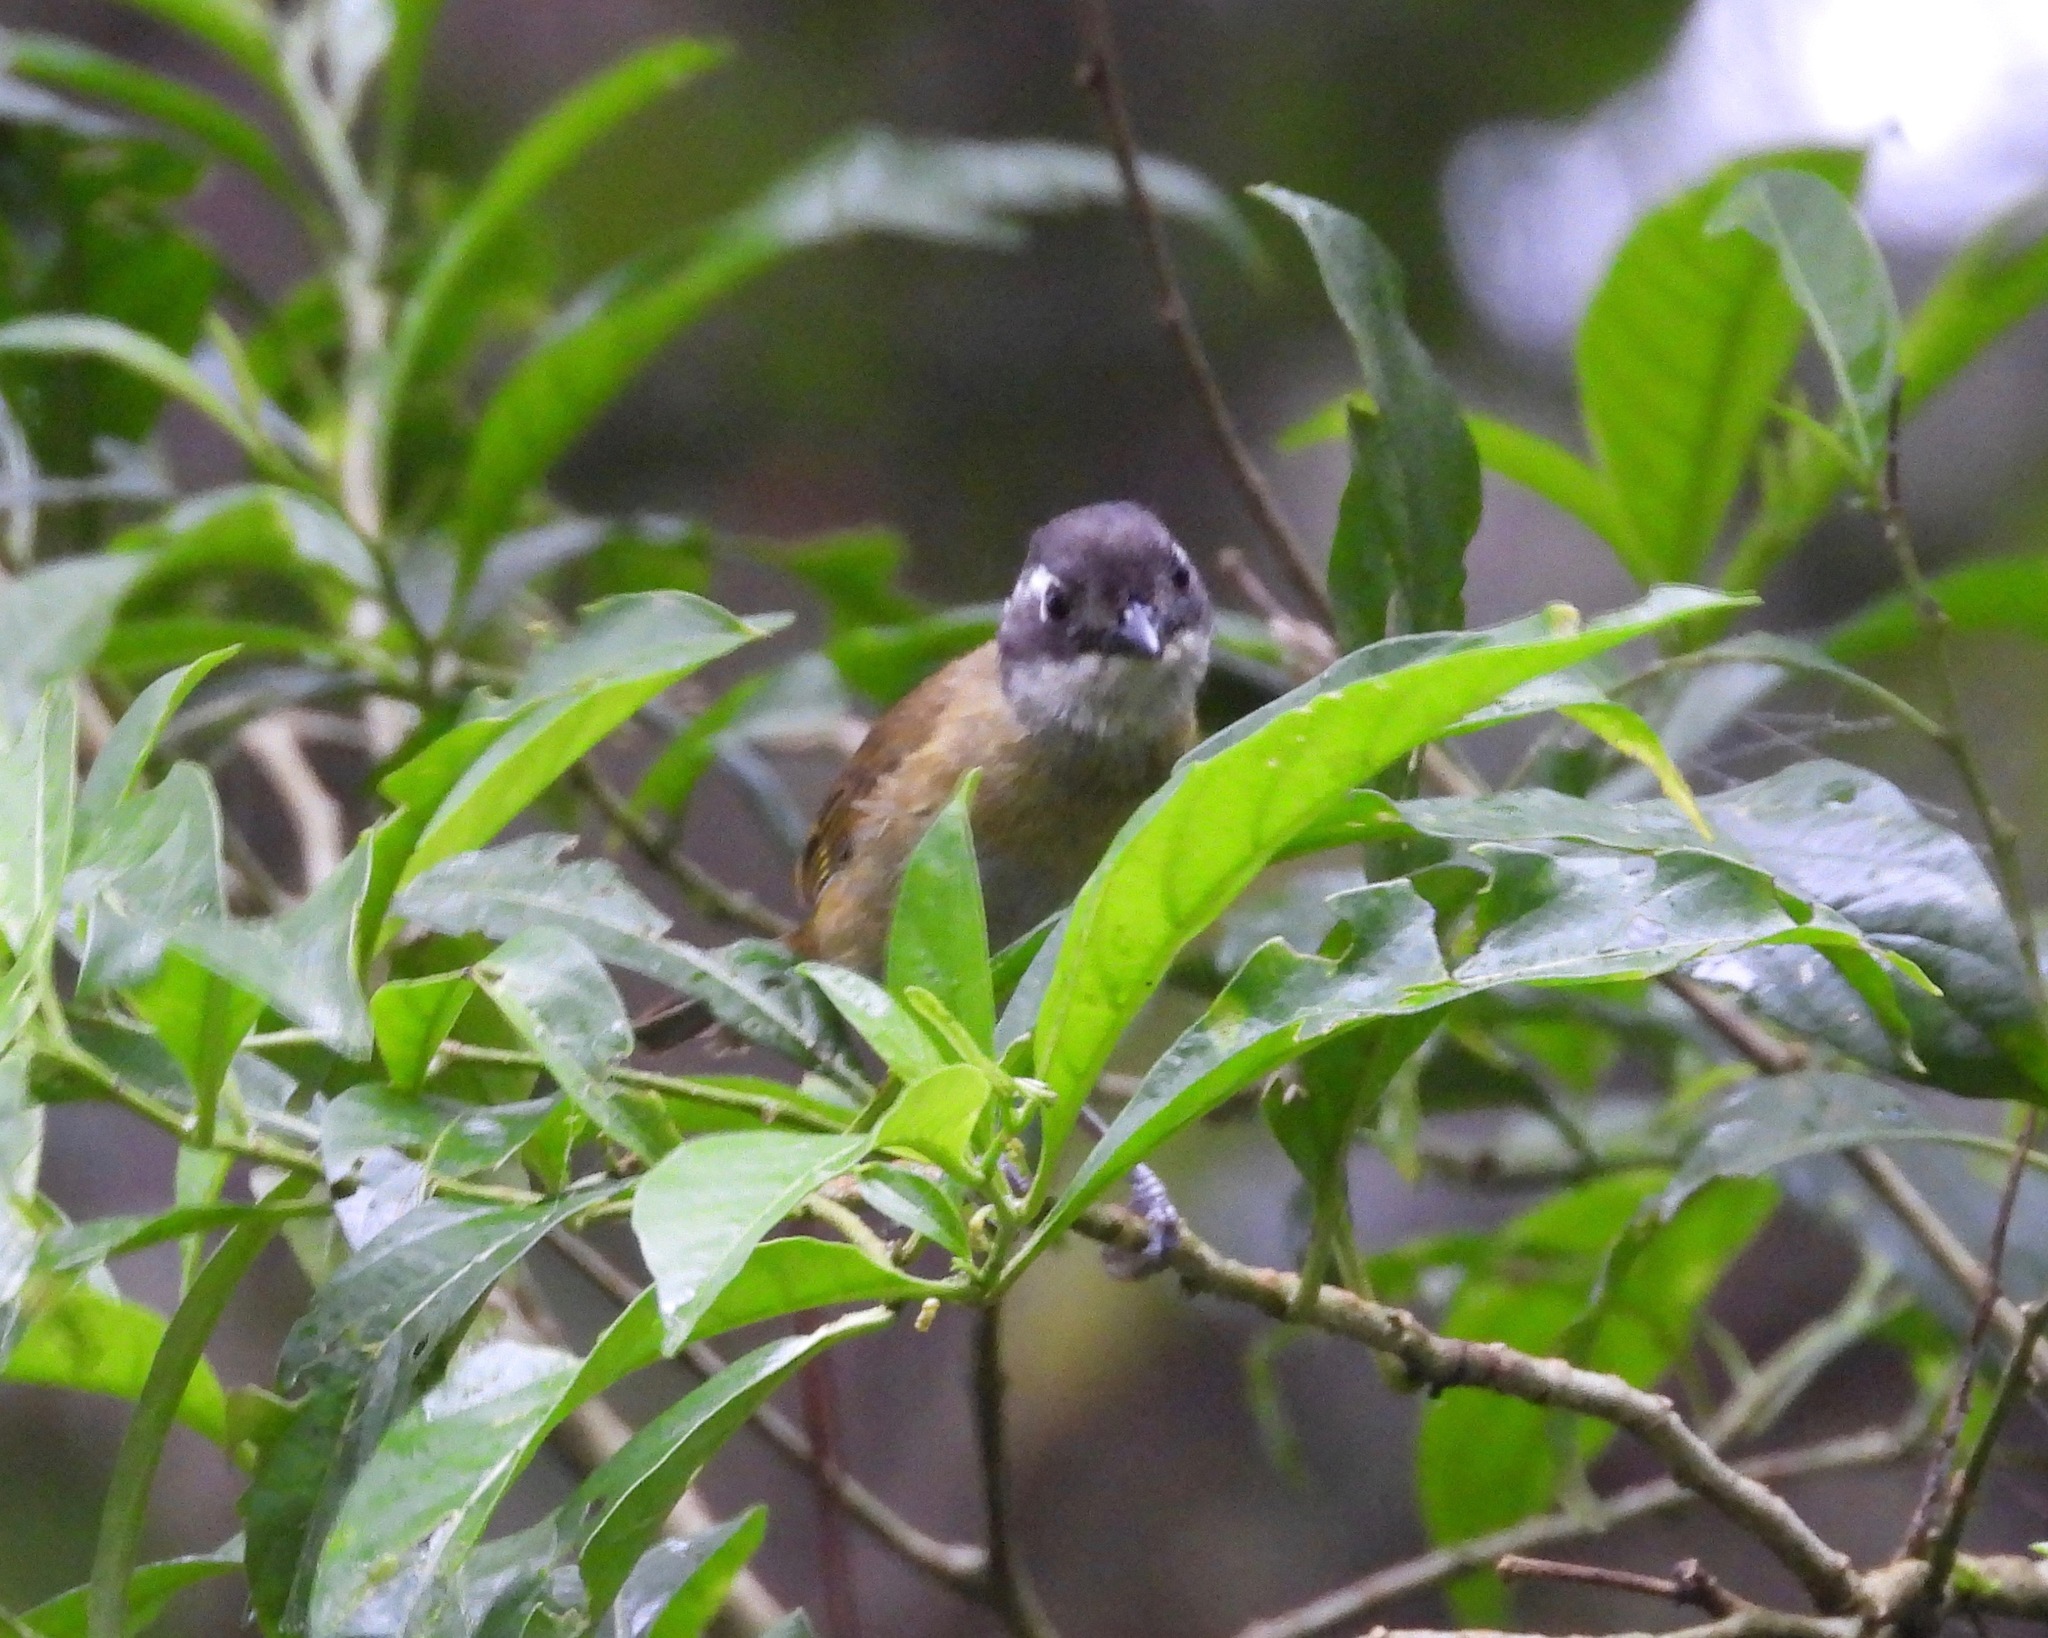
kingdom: Animalia
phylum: Chordata
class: Aves
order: Passeriformes
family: Passerellidae
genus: Chlorospingus
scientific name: Chlorospingus flavopectus
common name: Common chlorospingus
